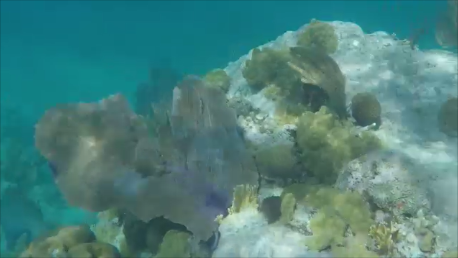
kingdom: Animalia
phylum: Cnidaria
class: Anthozoa
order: Malacalcyonacea
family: Gorgoniidae
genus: Gorgonia
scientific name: Gorgonia ventalina
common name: Common sea fan
